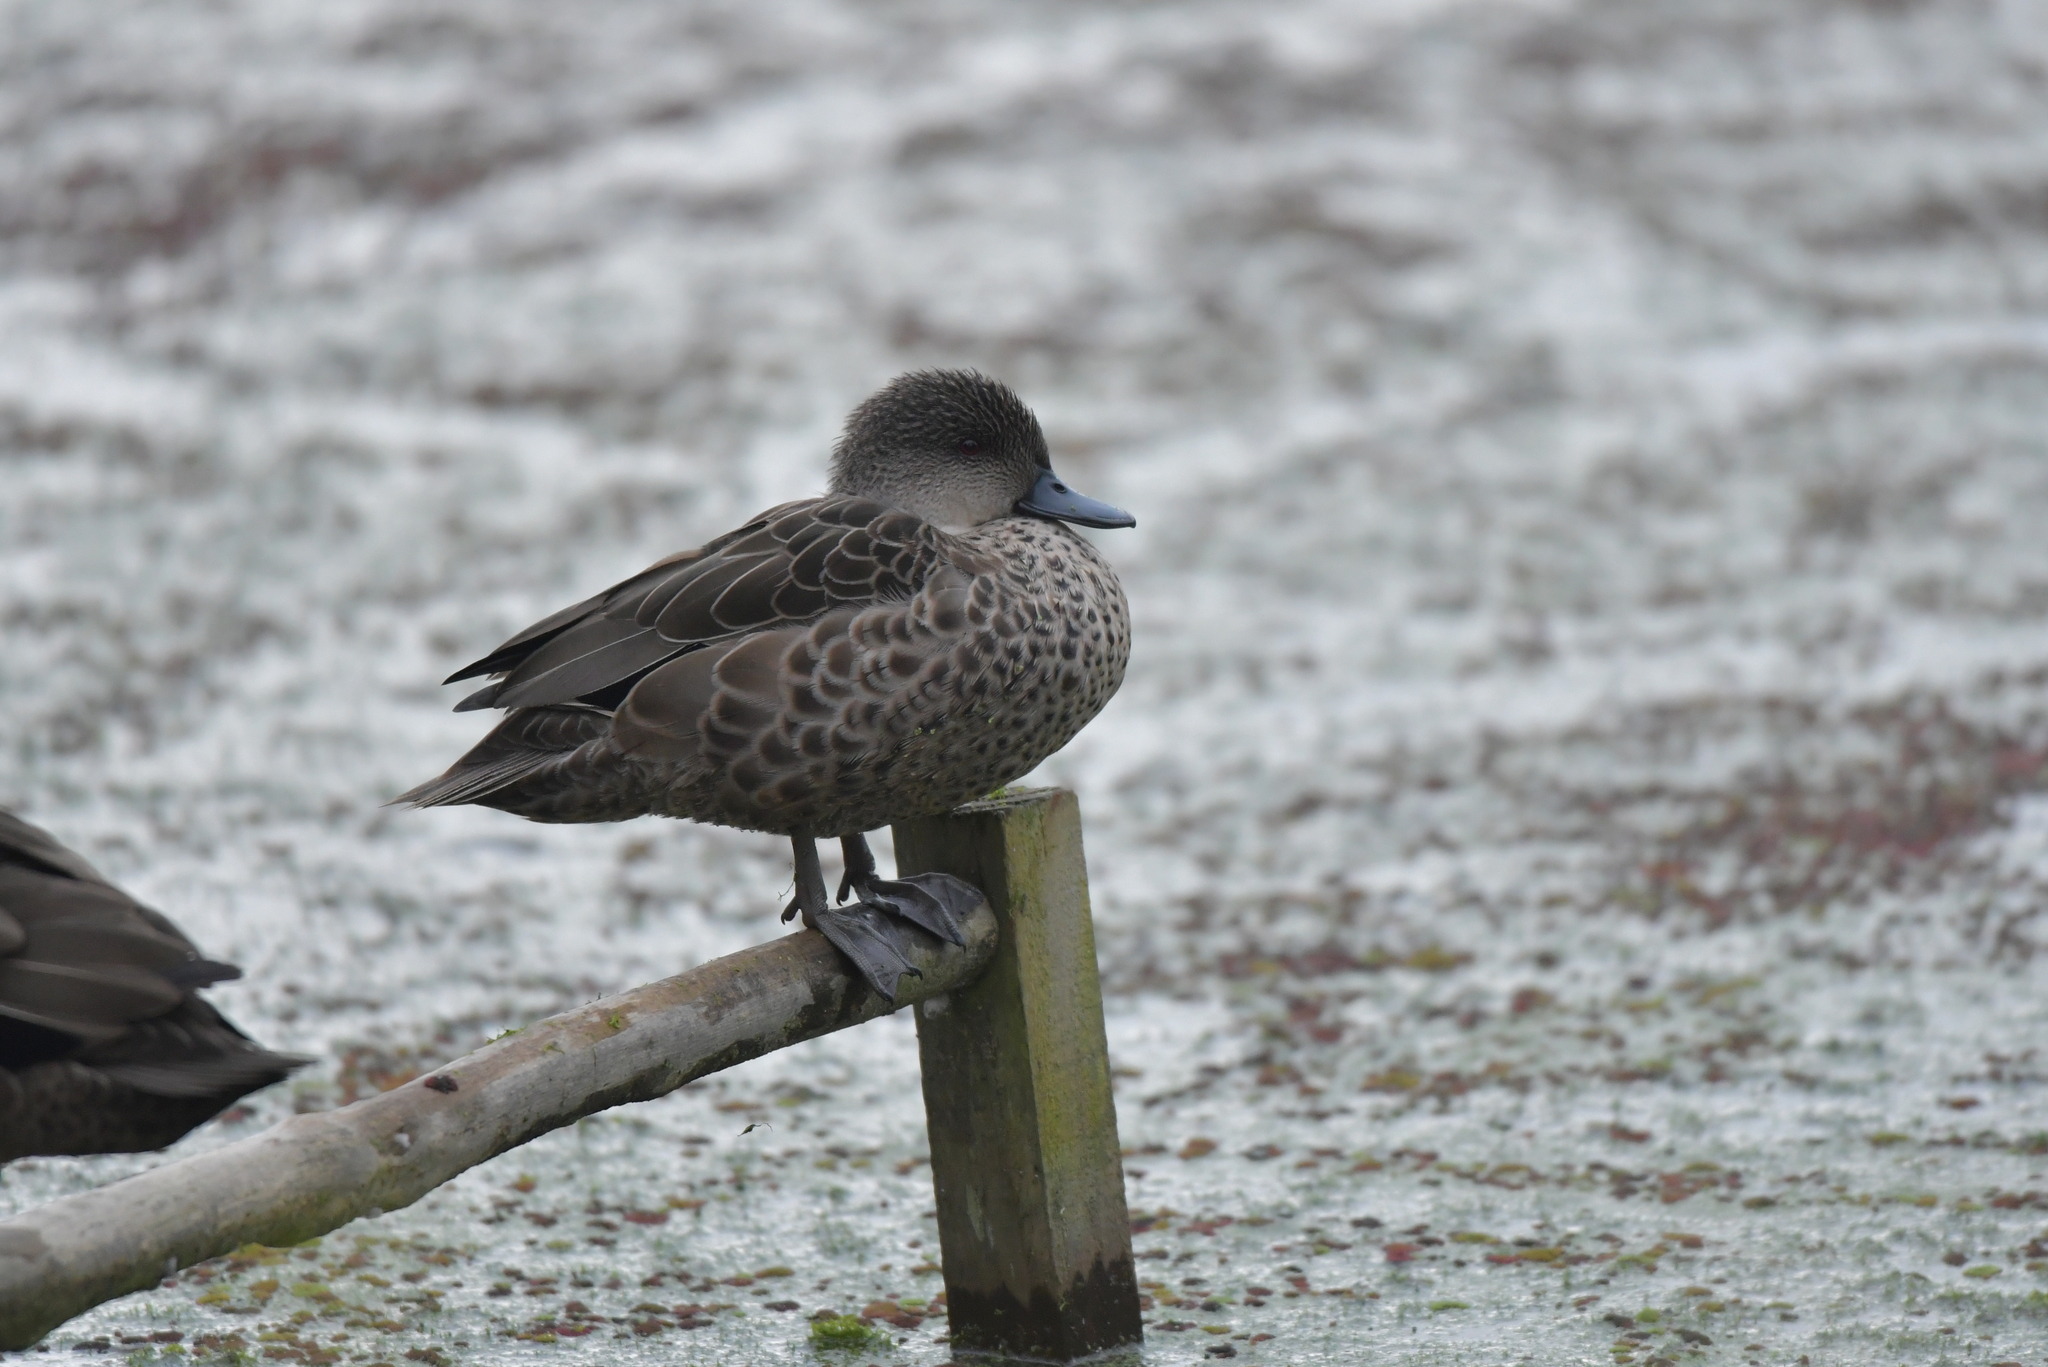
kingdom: Animalia
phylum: Chordata
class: Aves
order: Anseriformes
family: Anatidae
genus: Anas
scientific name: Anas gracilis
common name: Grey teal
